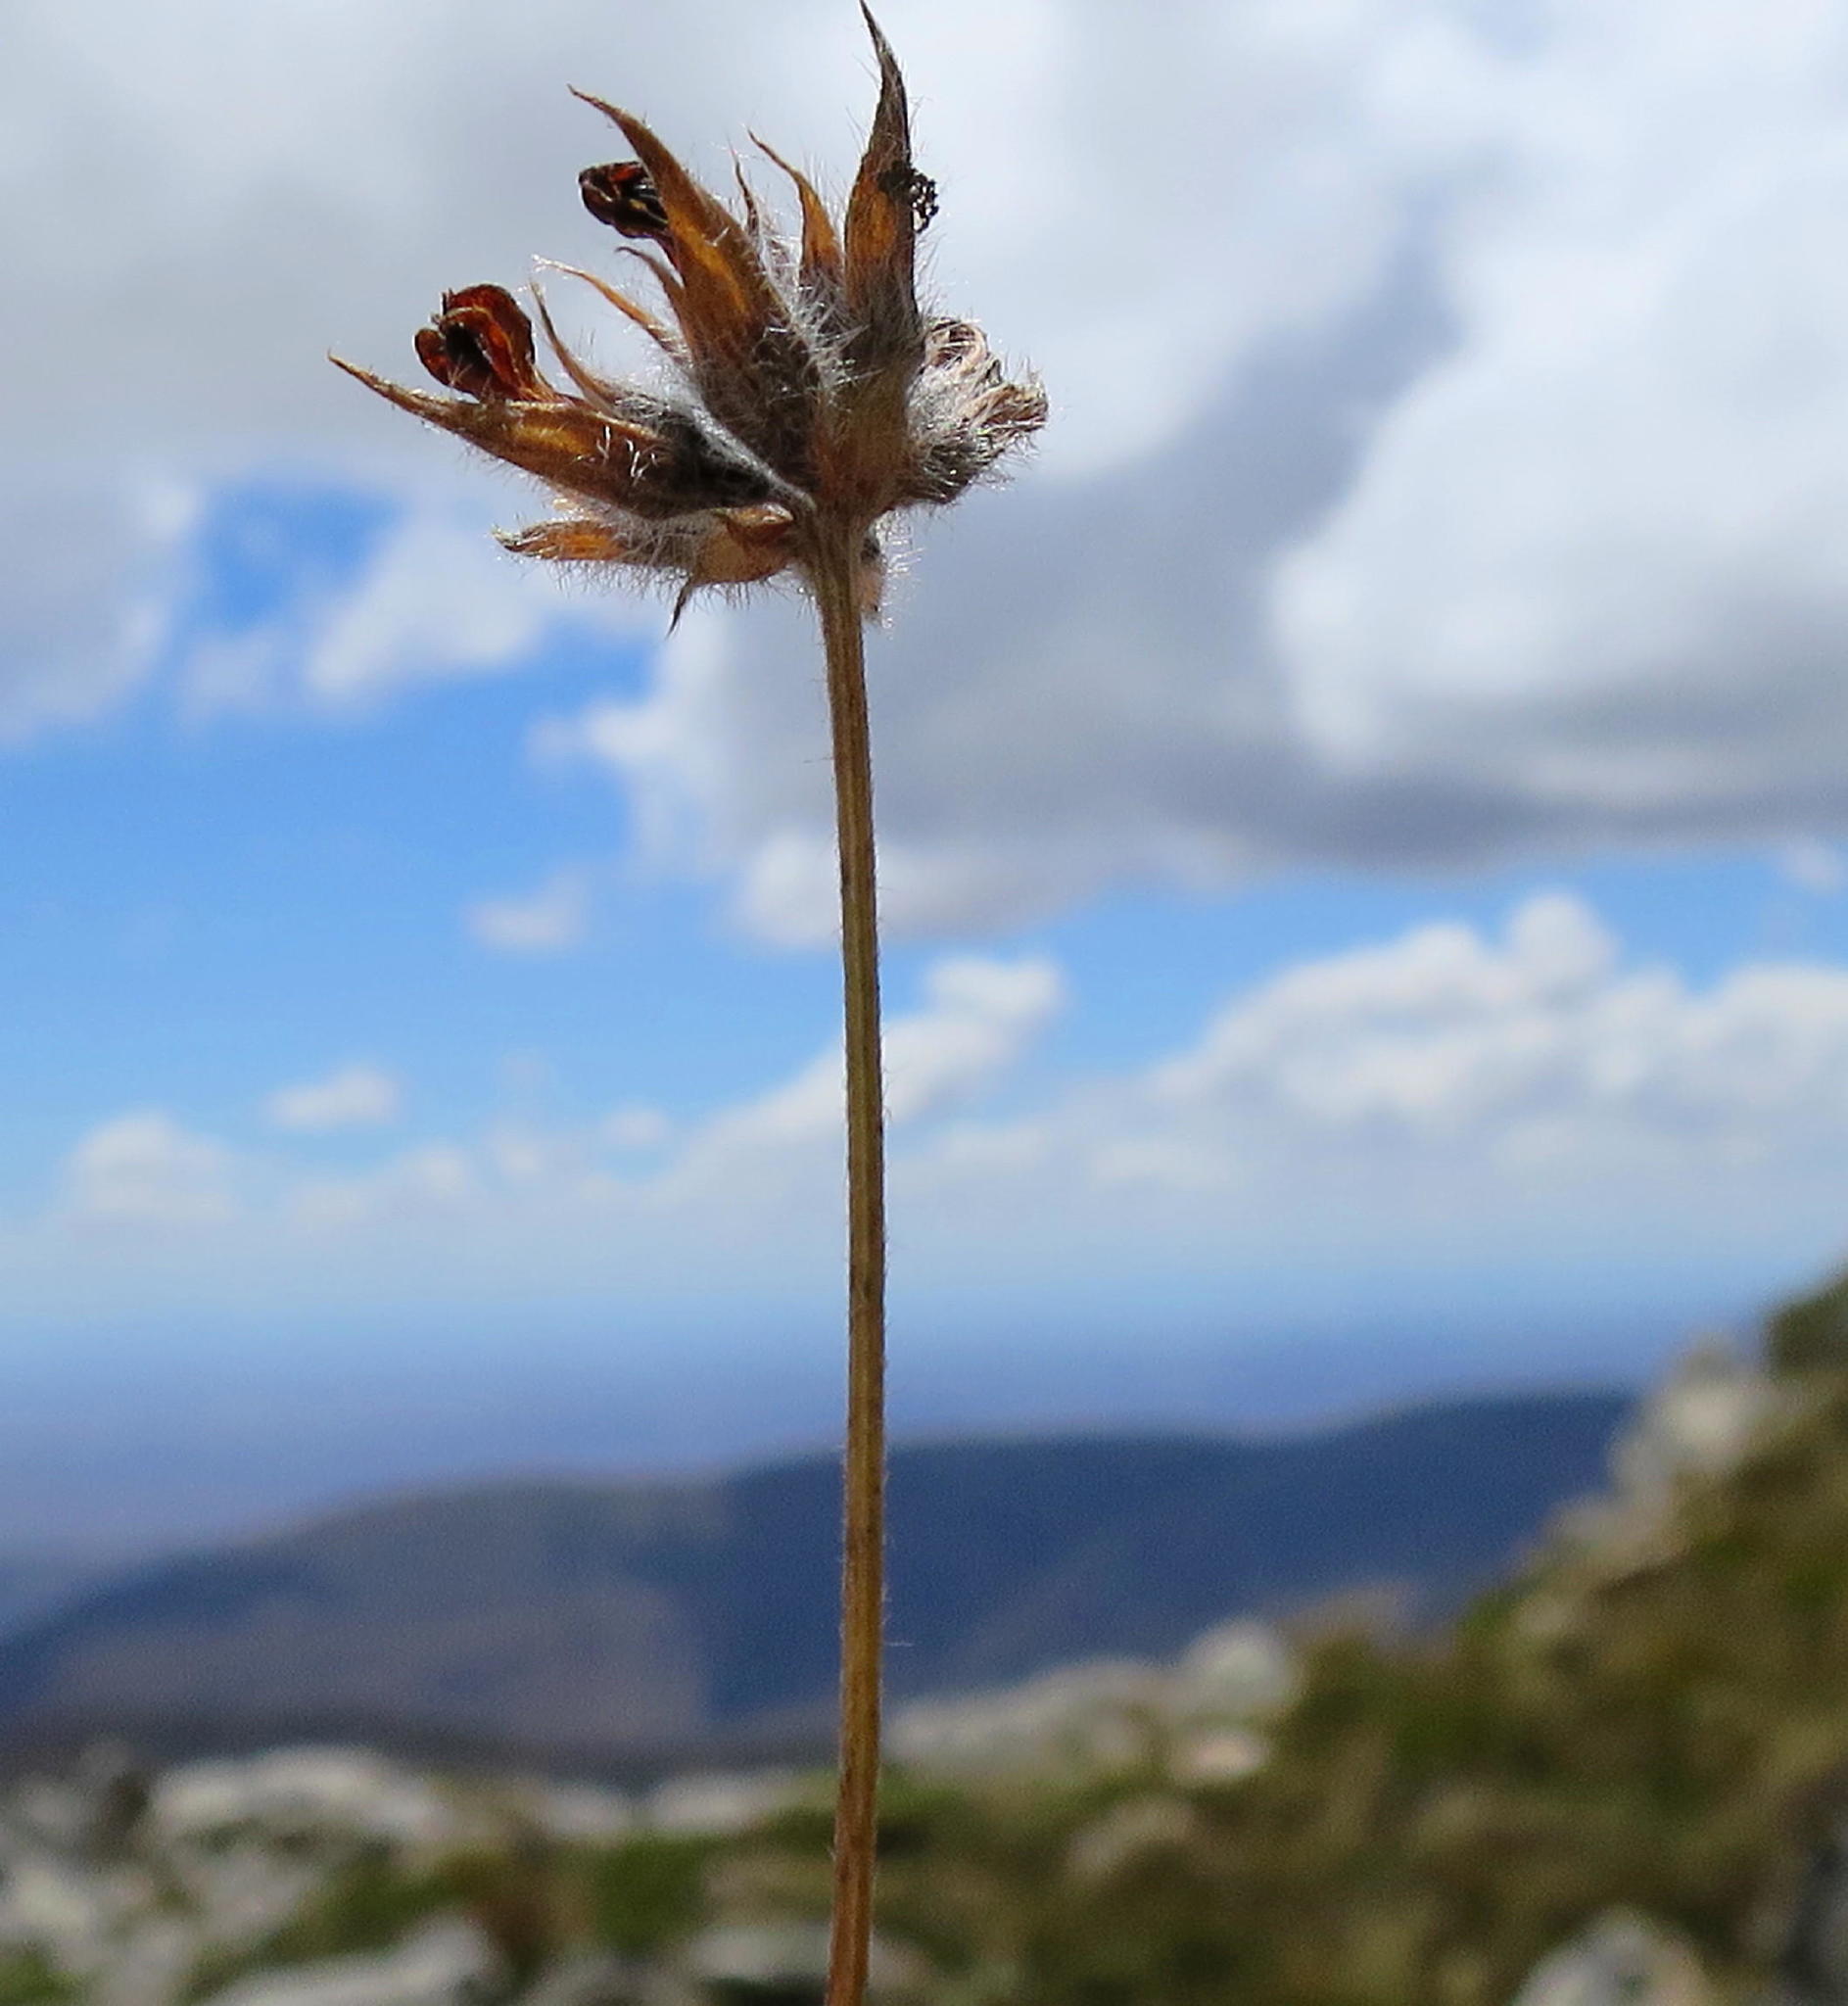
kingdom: Plantae
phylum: Tracheophyta
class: Magnoliopsida
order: Fabales
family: Fabaceae
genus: Psoralea
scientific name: Psoralea swartbergensis
